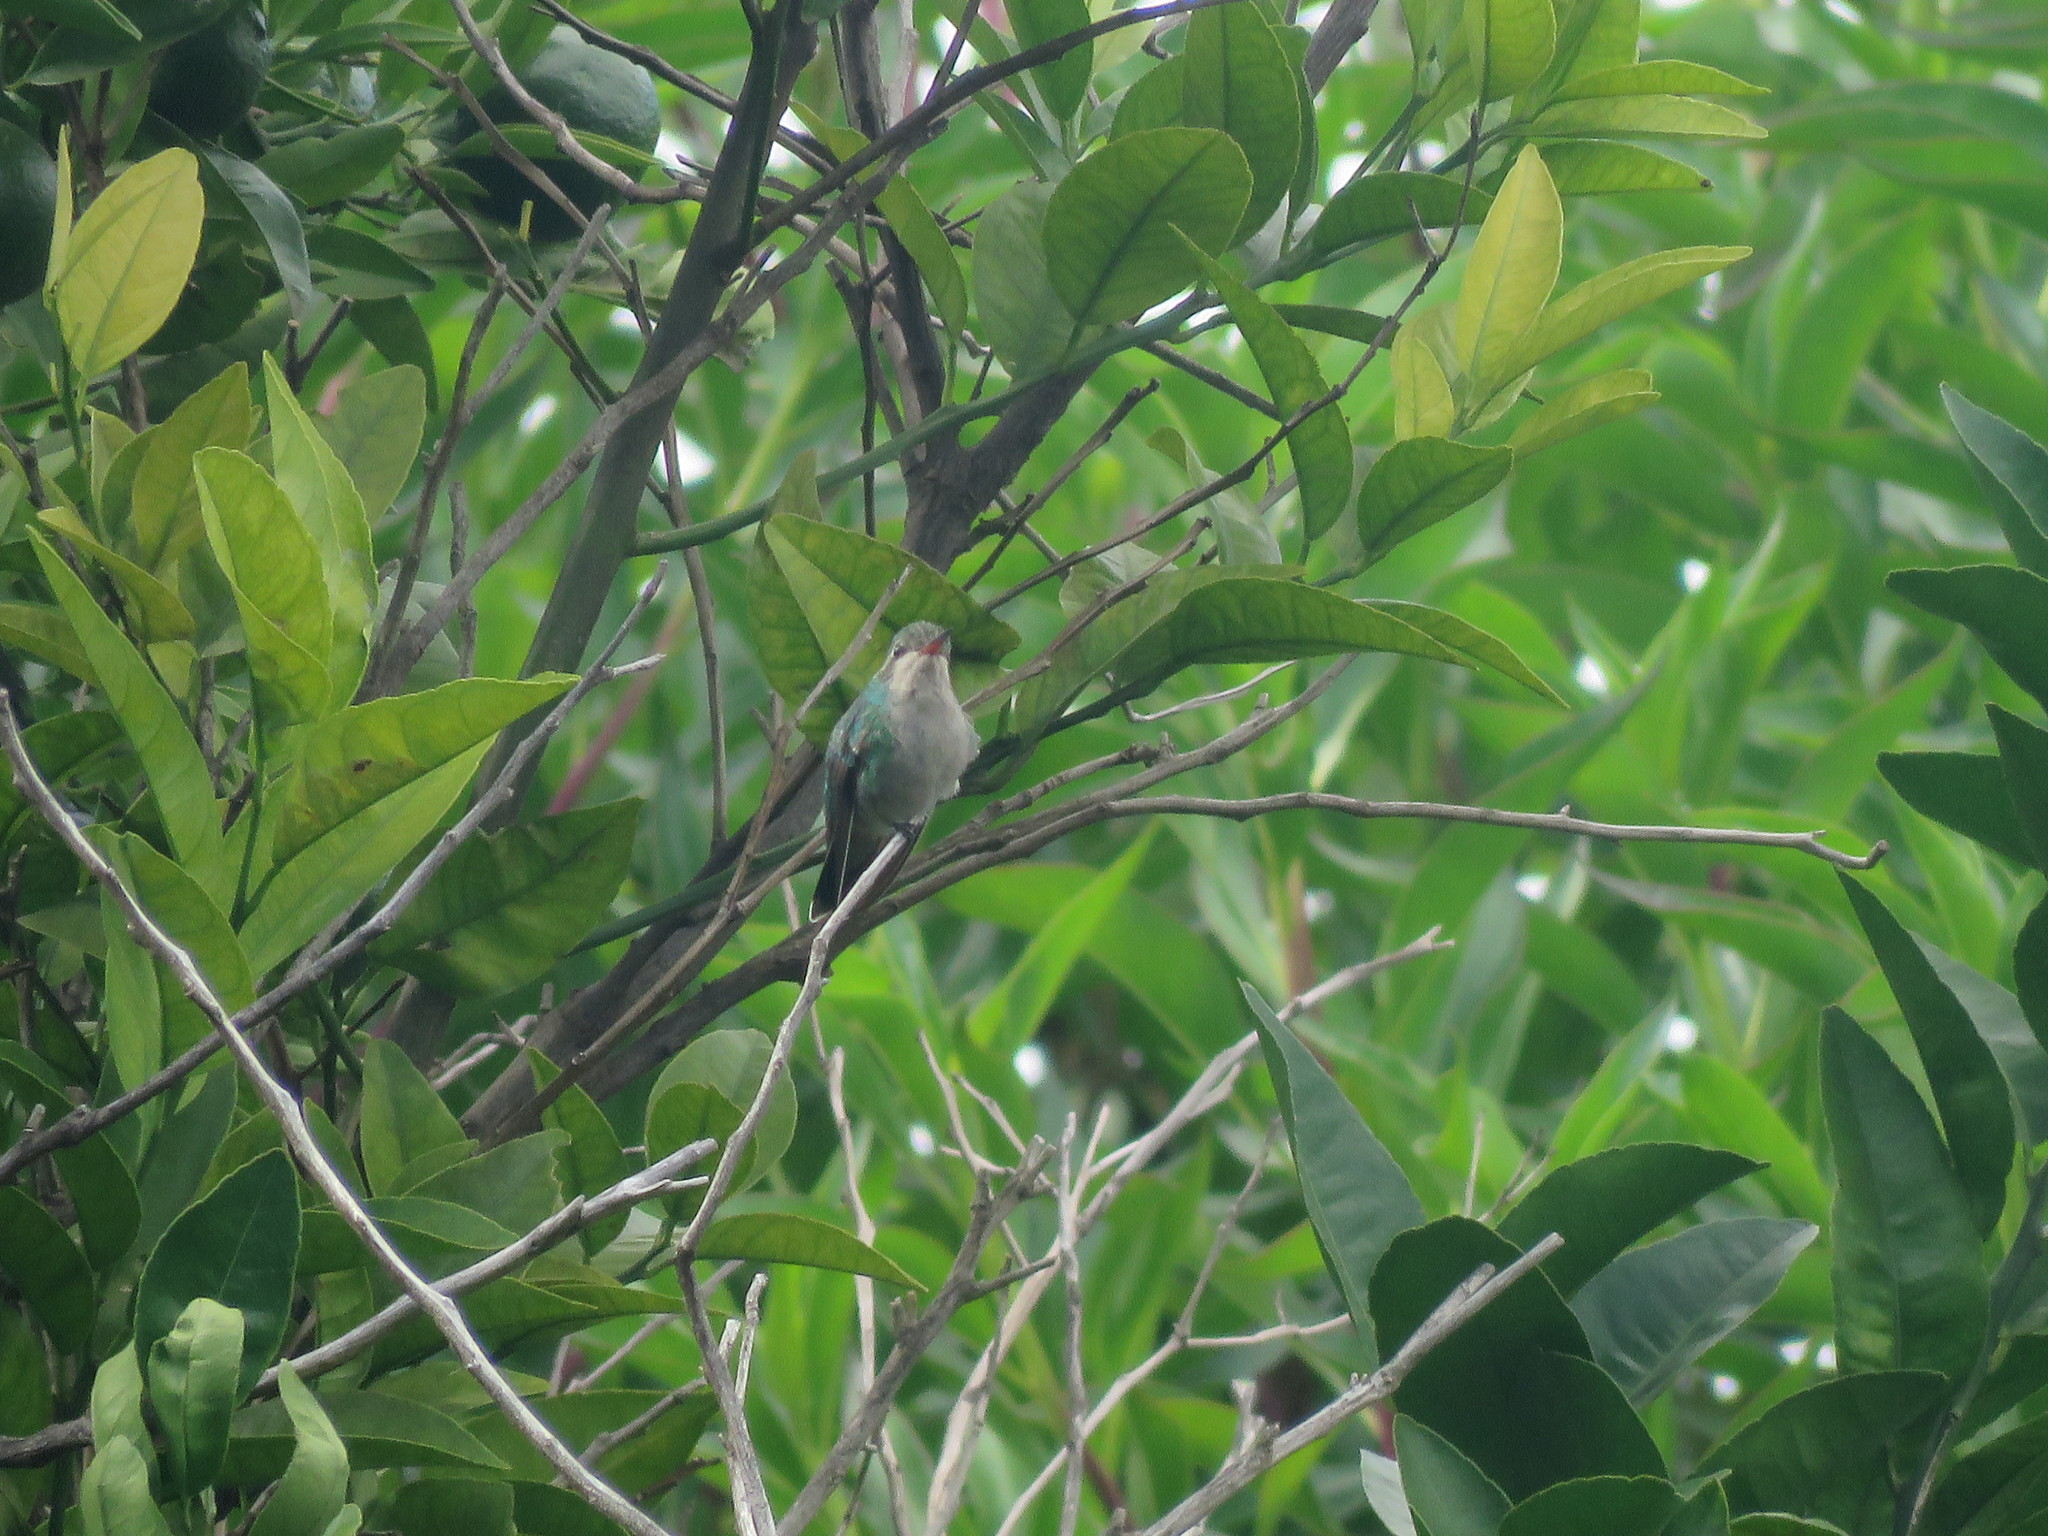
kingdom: Animalia
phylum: Chordata
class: Aves
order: Apodiformes
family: Trochilidae
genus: Chlorostilbon
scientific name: Chlorostilbon lucidus
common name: Glittering-bellied emerald
